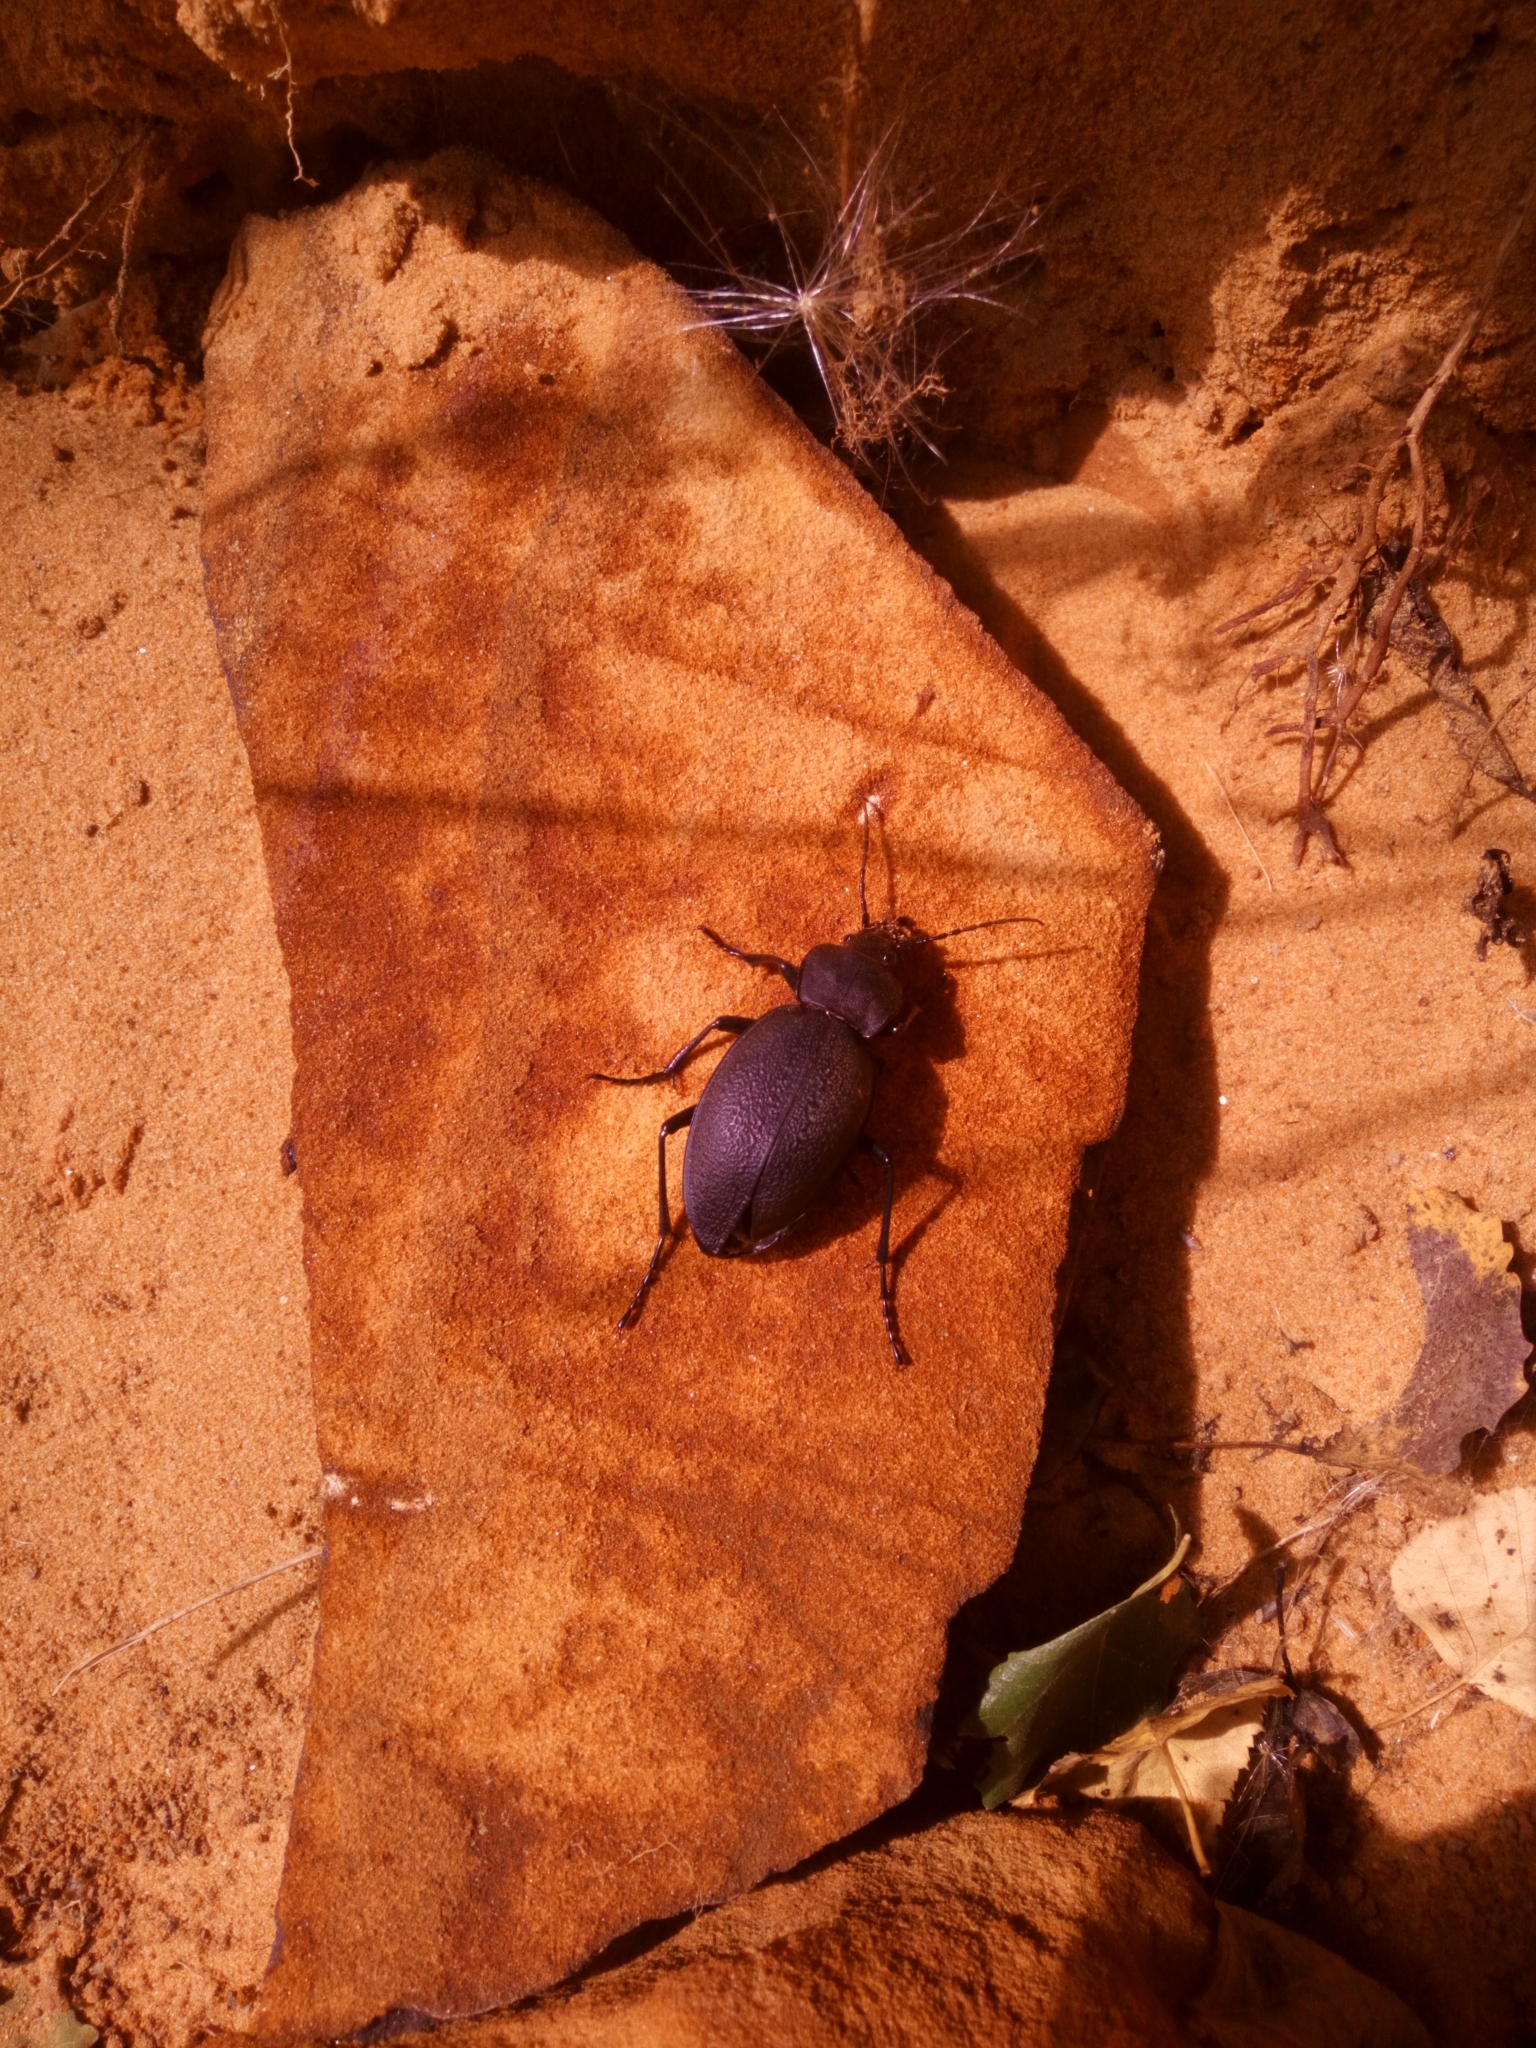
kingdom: Animalia
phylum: Arthropoda
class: Insecta
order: Coleoptera
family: Carabidae
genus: Carabus
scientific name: Carabus coriaceus
